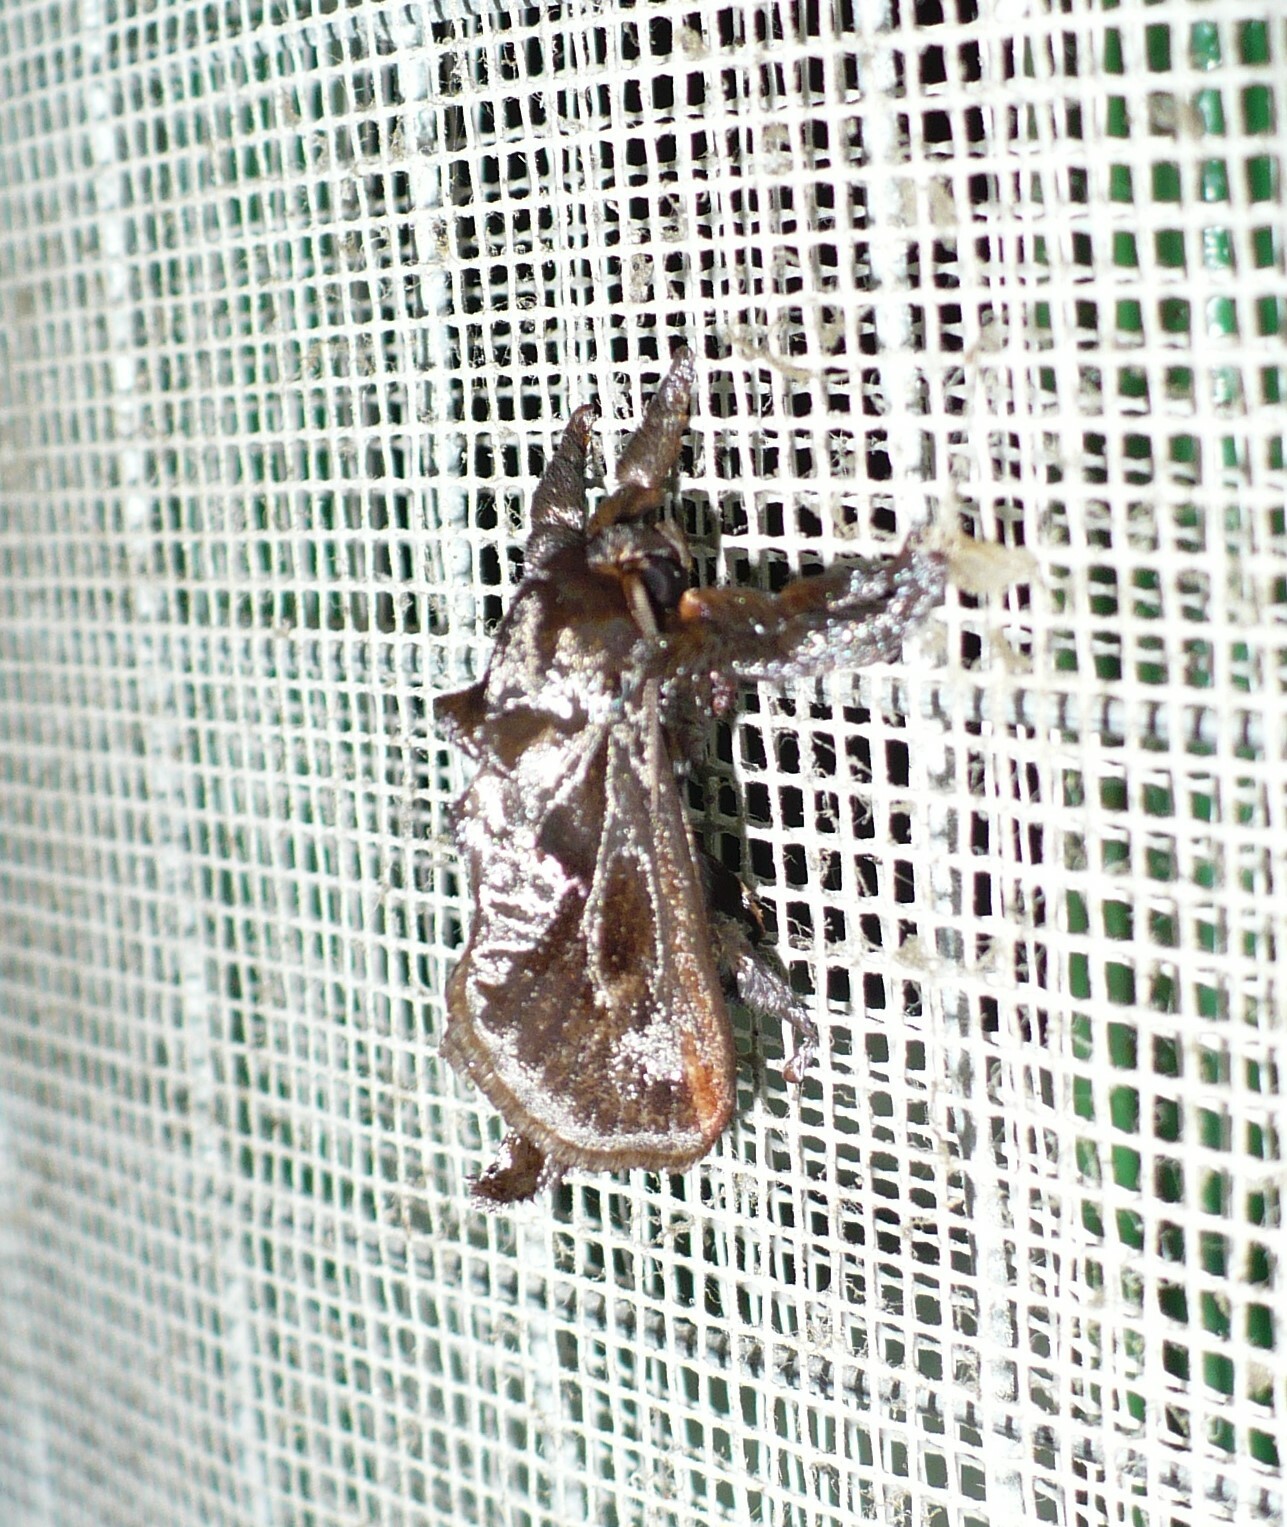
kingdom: Animalia
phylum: Arthropoda
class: Insecta
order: Lepidoptera
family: Limacodidae
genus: Sibine
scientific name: Sibine nesea
